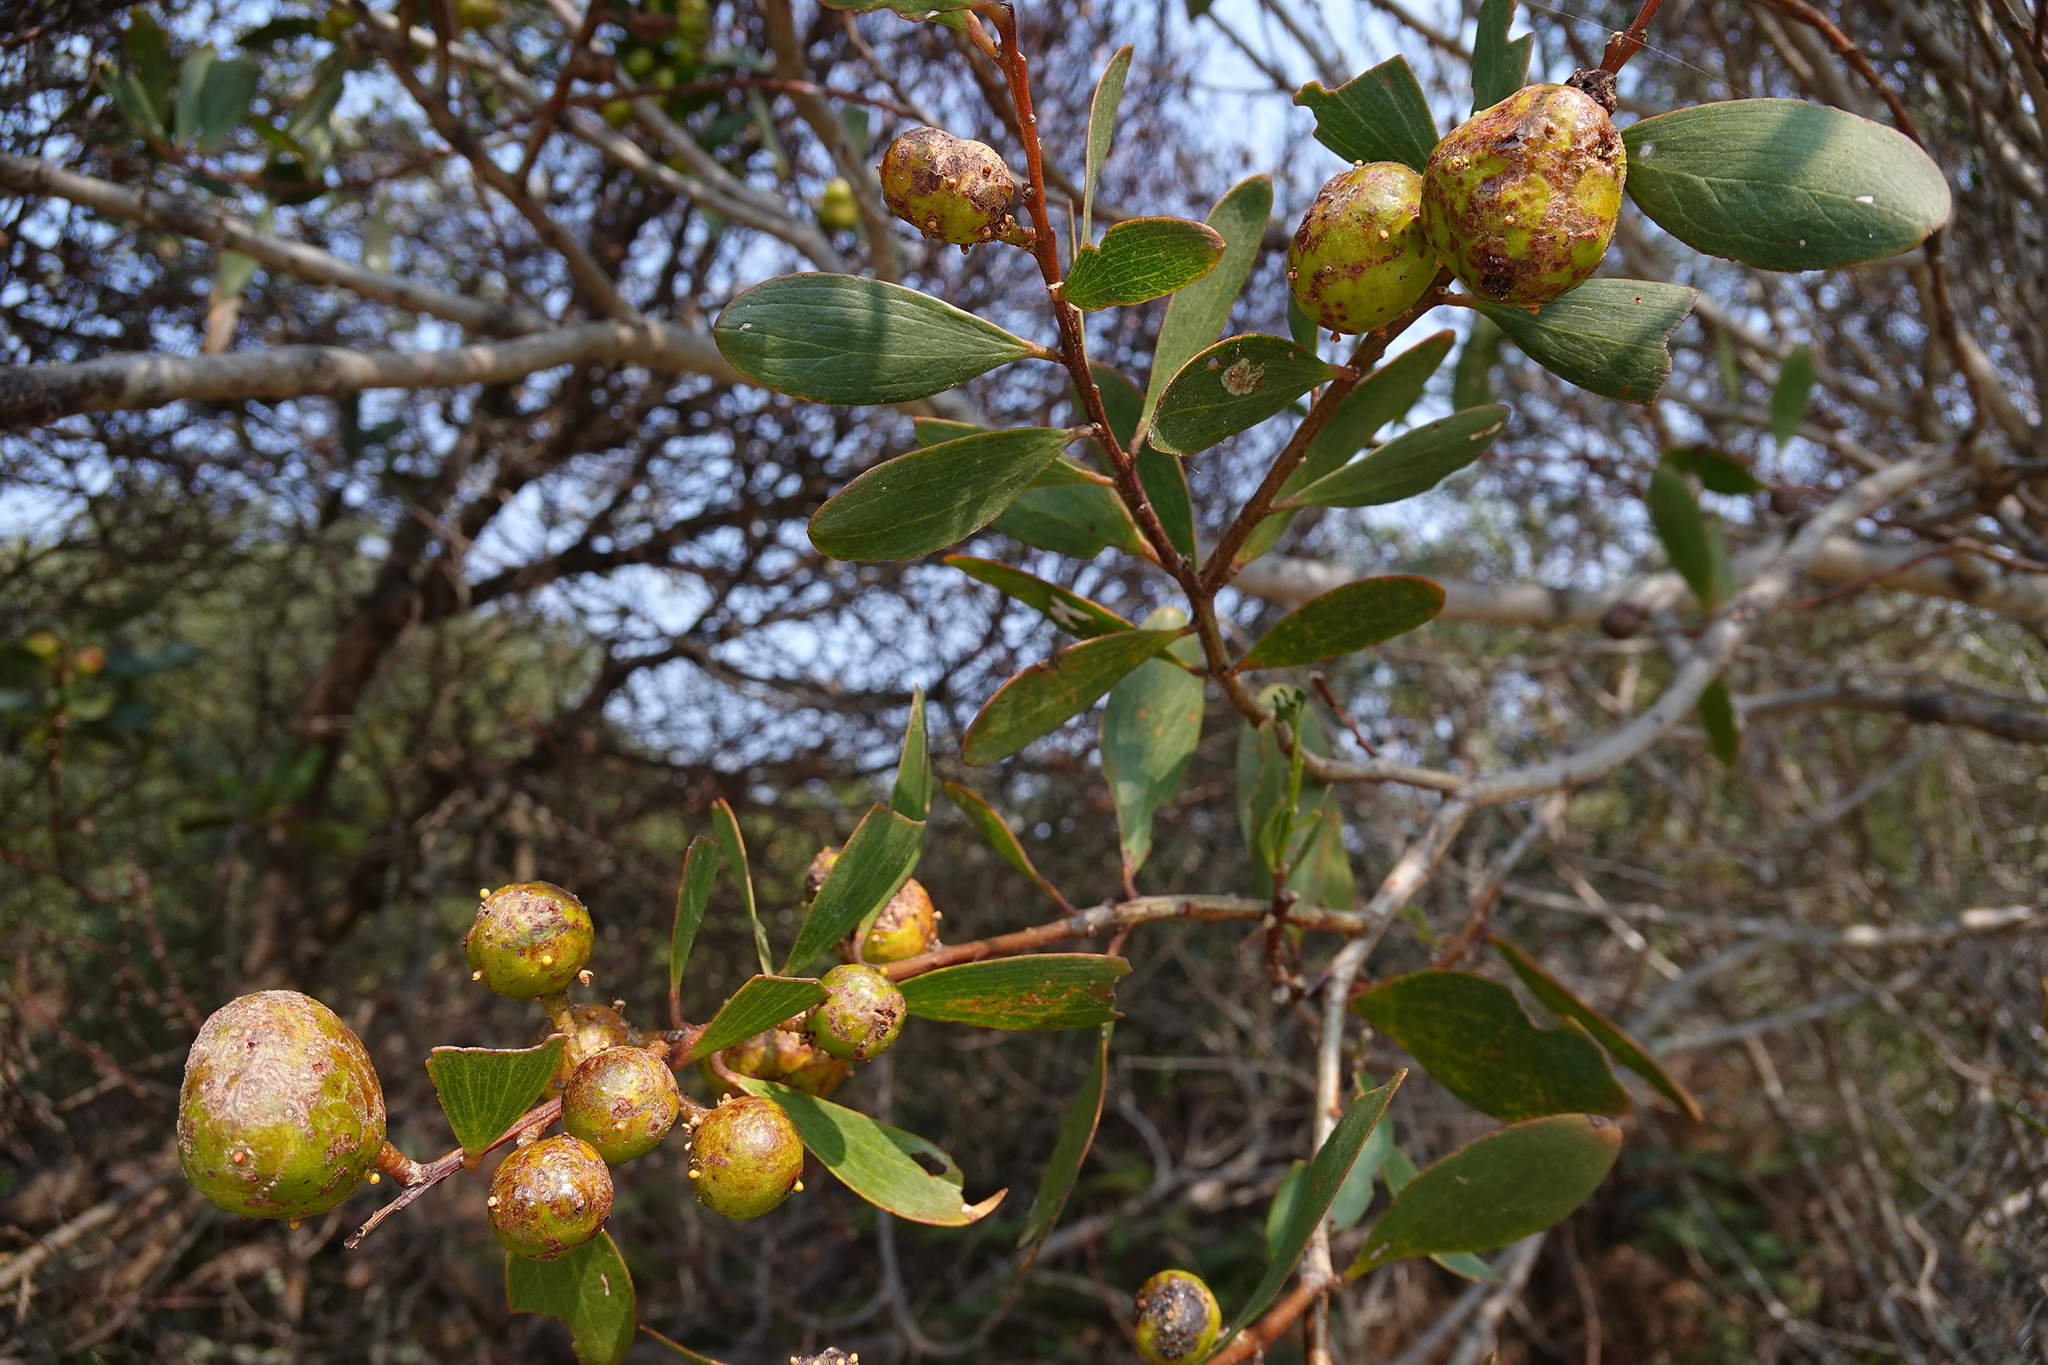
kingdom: Animalia
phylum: Arthropoda
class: Insecta
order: Hymenoptera
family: Pteromalidae
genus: Trichilogaster
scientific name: Trichilogaster acaciaelongifoliae
